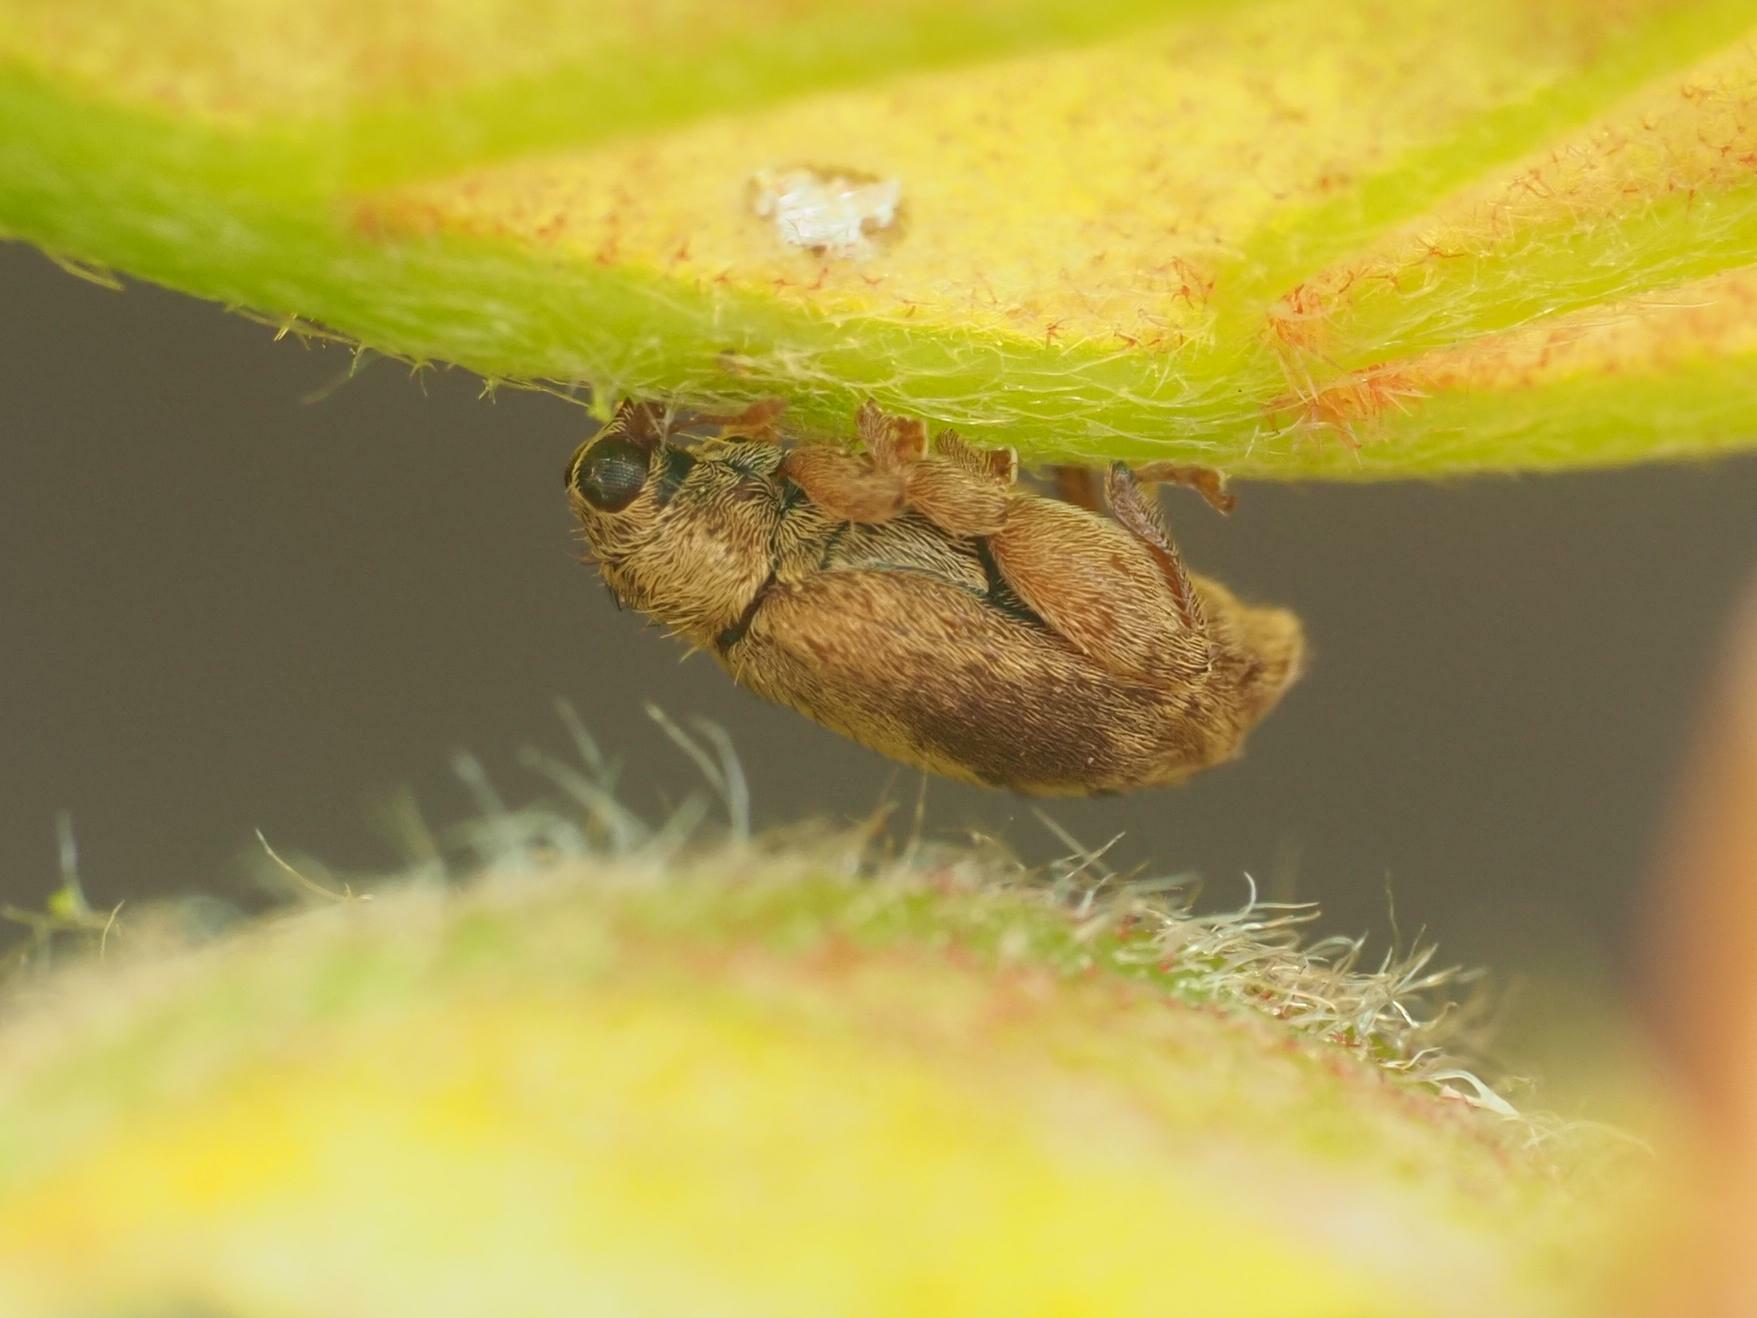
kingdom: Animalia
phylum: Arthropoda
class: Insecta
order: Coleoptera
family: Curculionidae
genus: Orchestes
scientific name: Orchestes quercus
